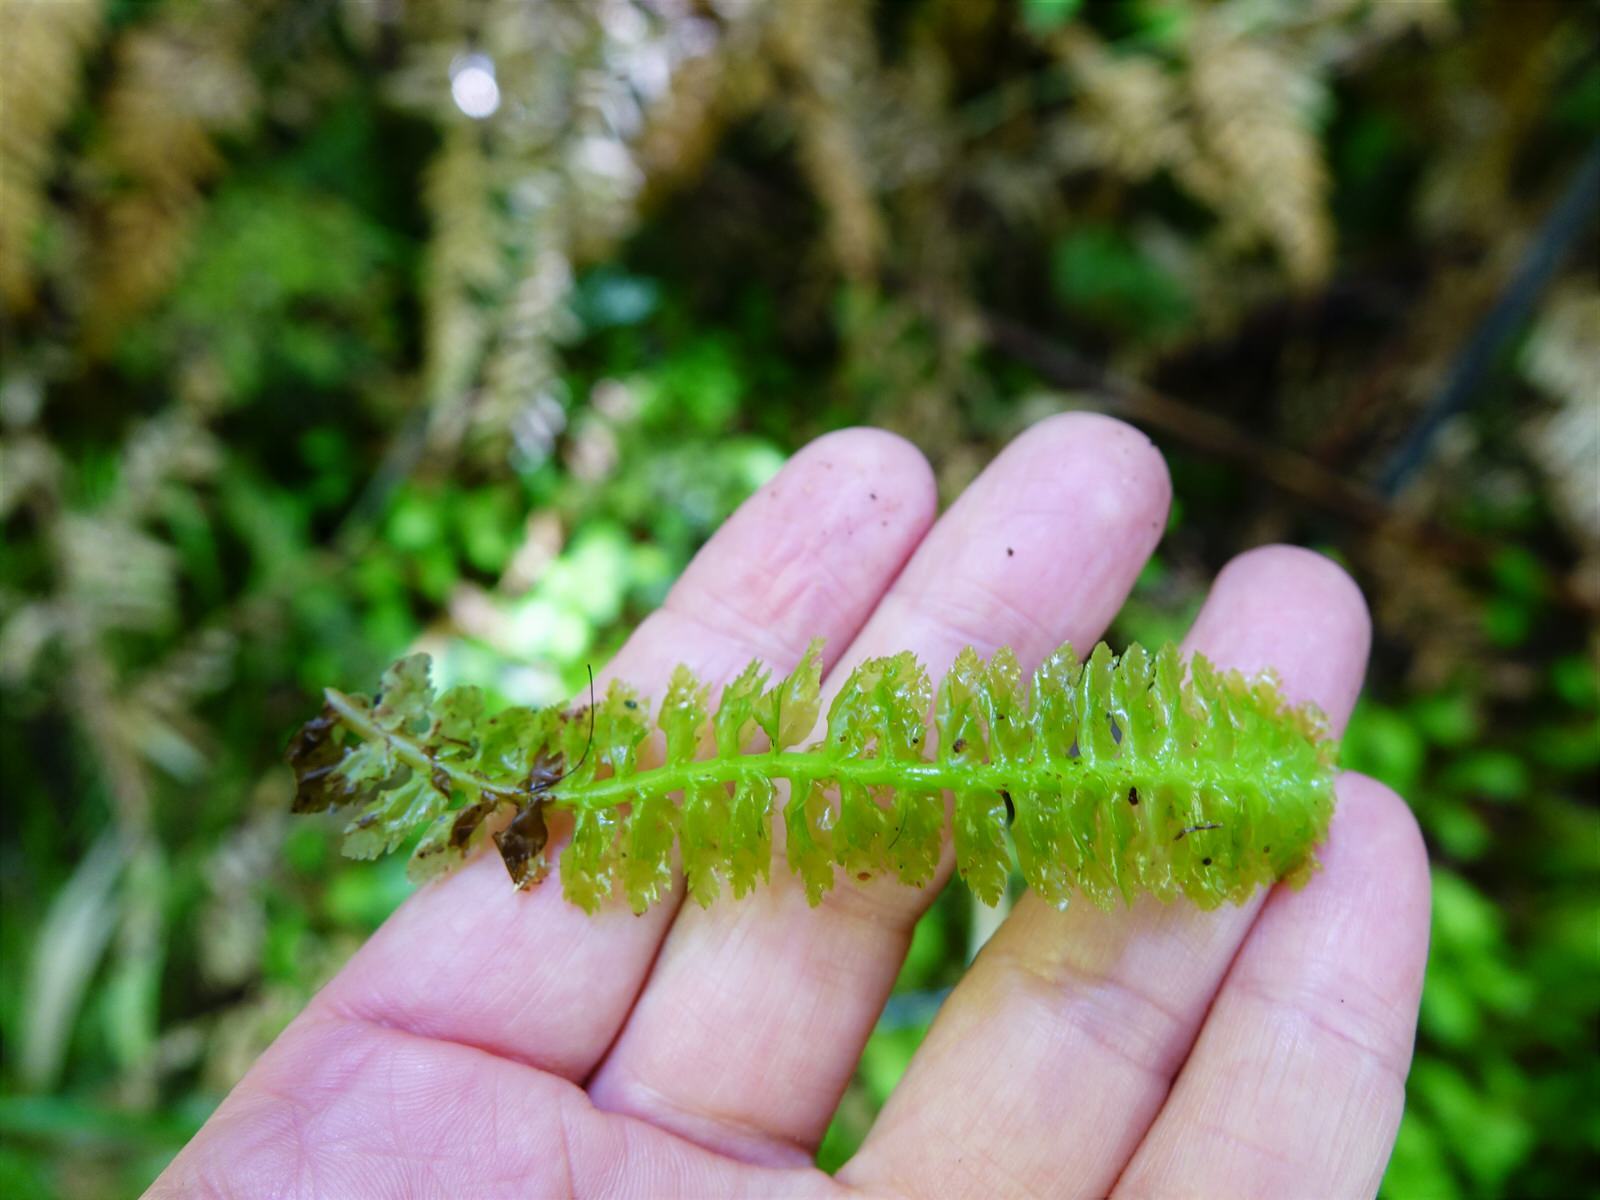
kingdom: Plantae
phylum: Marchantiophyta
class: Jungermanniopsida
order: Jungermanniales
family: Schistochilaceae
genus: Schistochila
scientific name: Schistochila appendiculata
